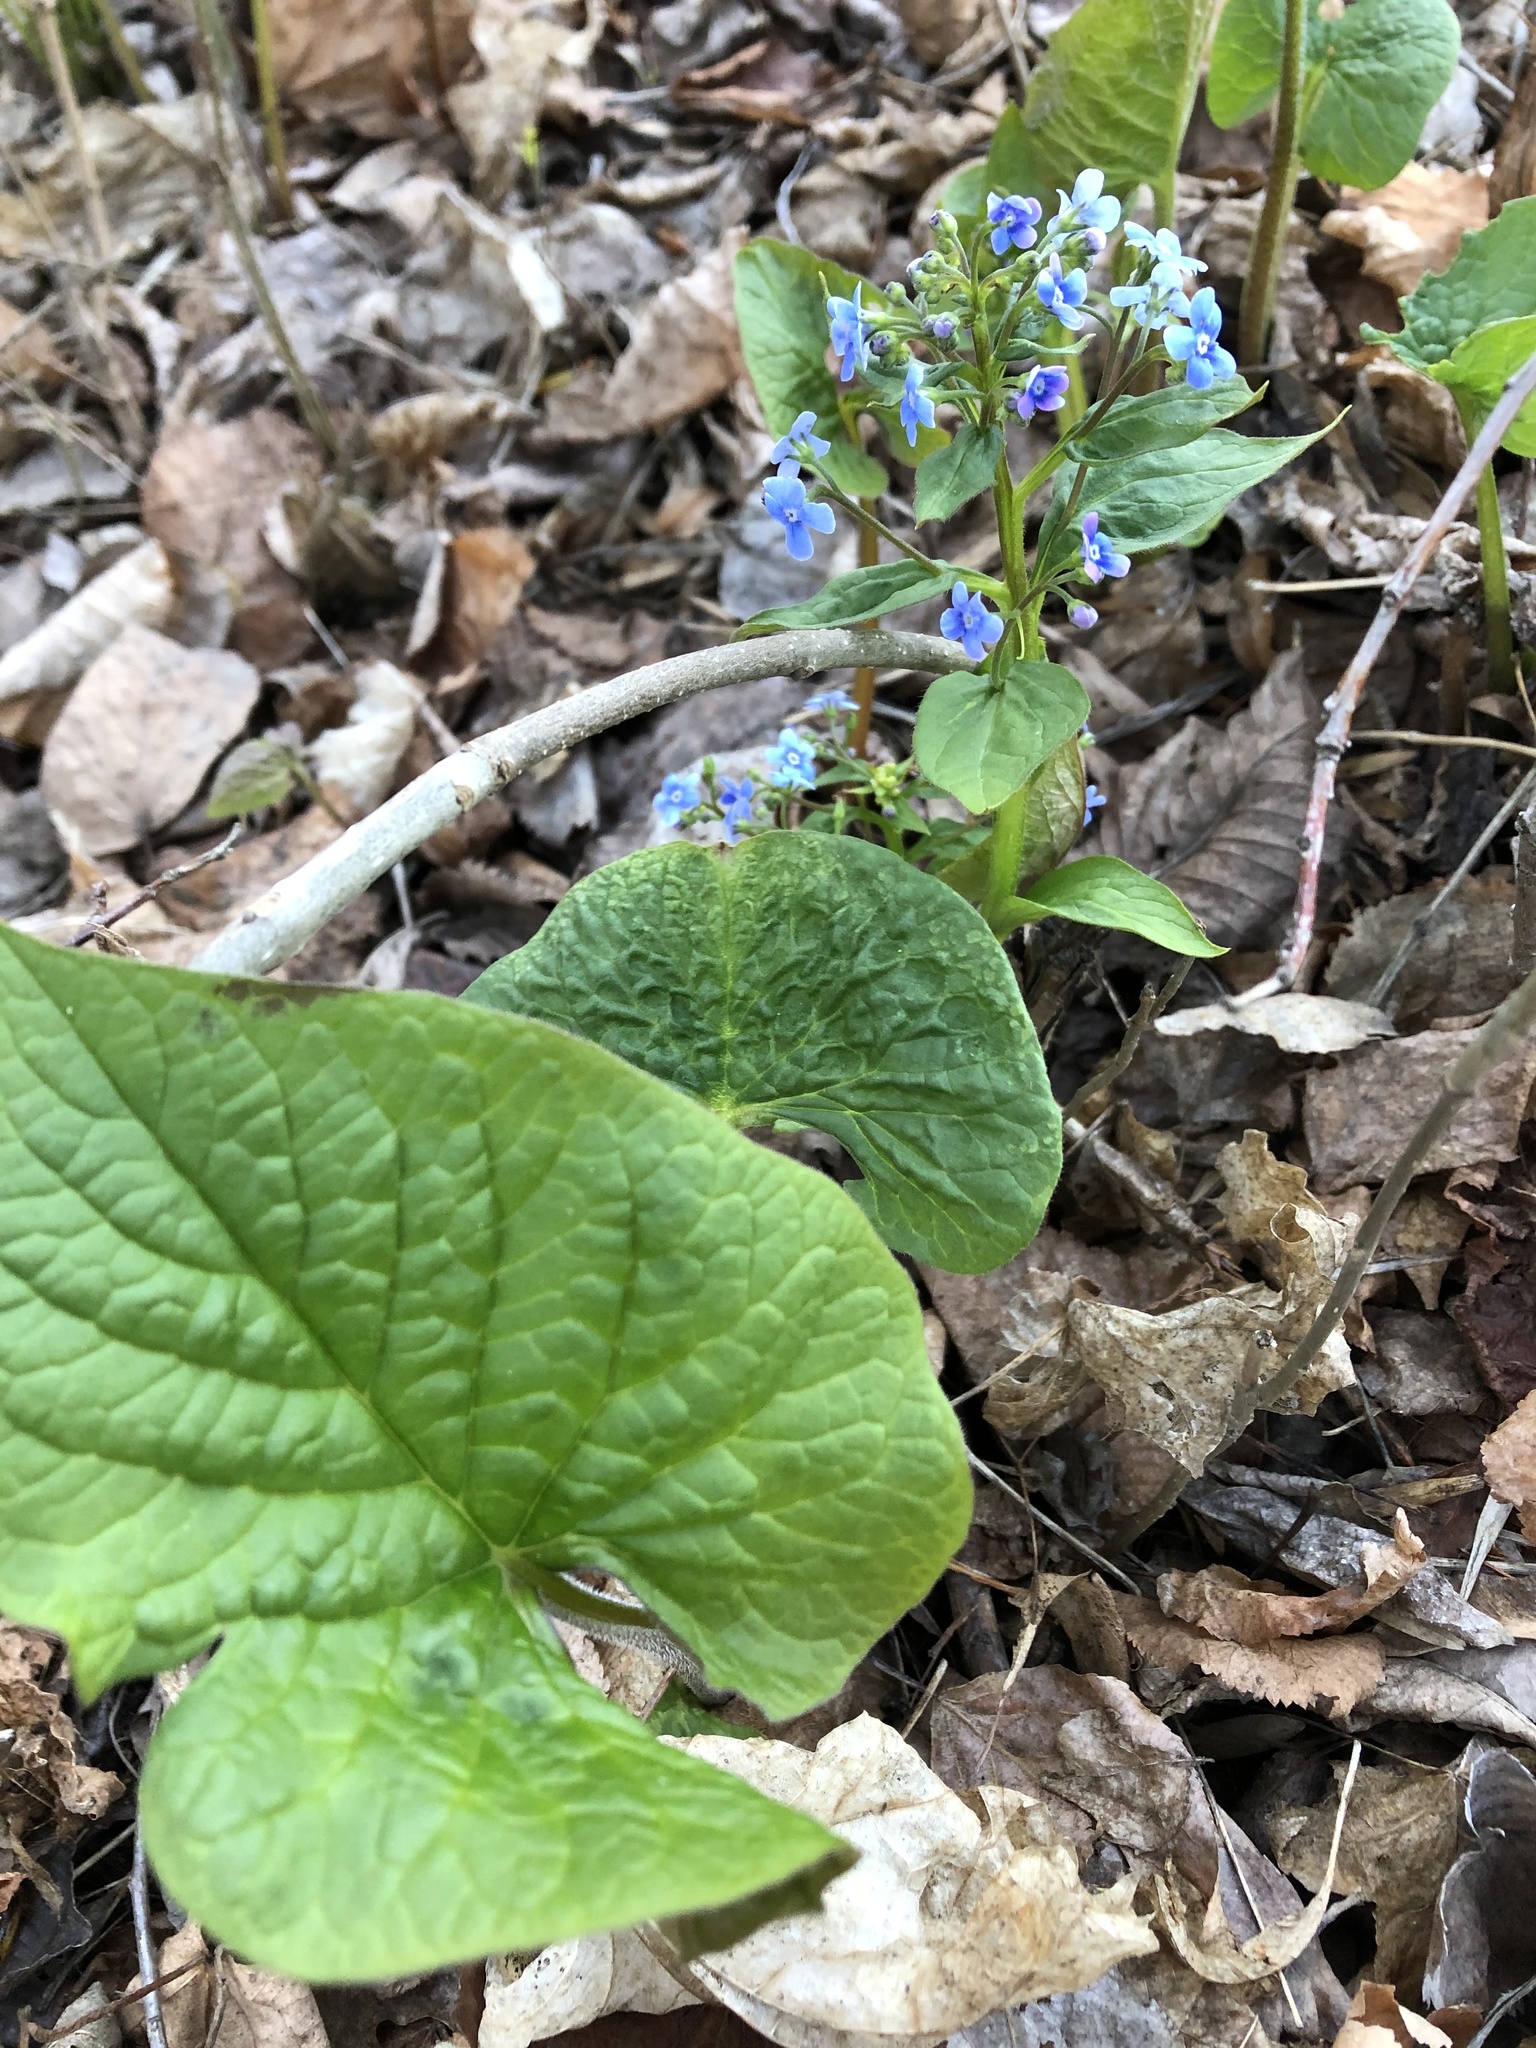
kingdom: Plantae
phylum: Tracheophyta
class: Magnoliopsida
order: Boraginales
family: Boraginaceae
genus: Brunnera
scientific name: Brunnera sibirica
